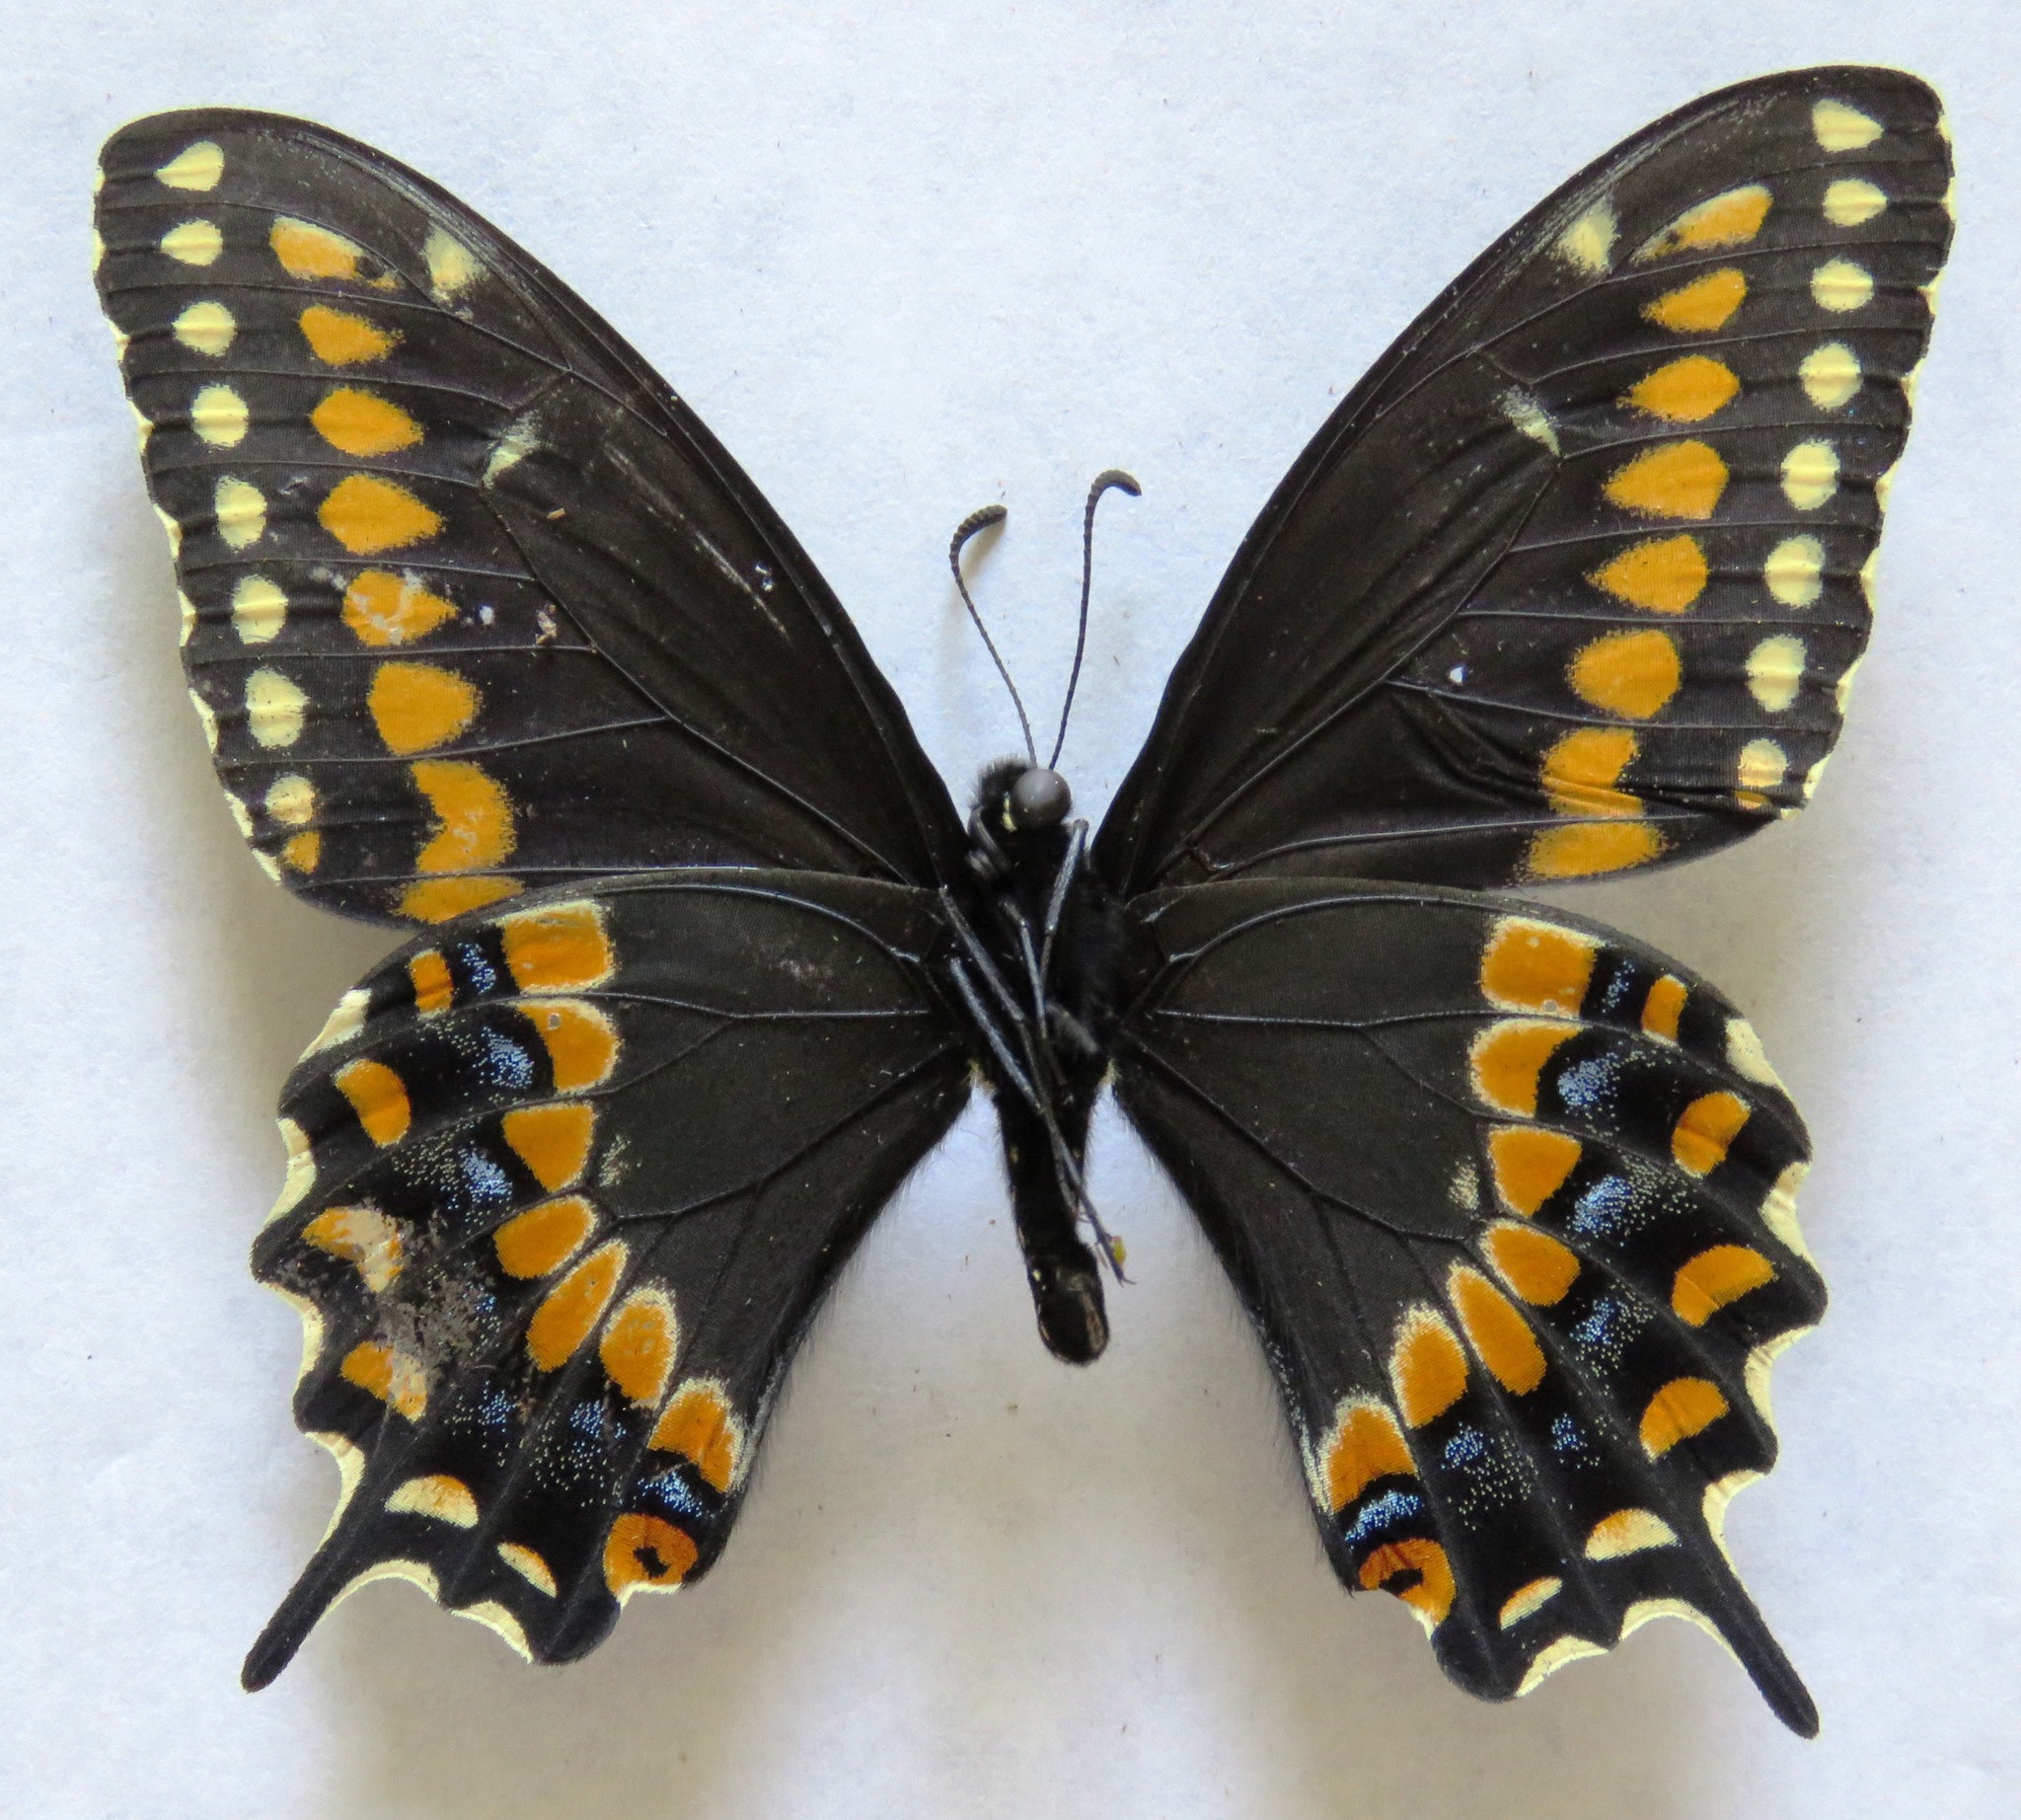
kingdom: Animalia
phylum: Arthropoda
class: Insecta
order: Lepidoptera
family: Papilionidae
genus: Papilio
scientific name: Papilio polyxenes
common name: Black swallowtail
